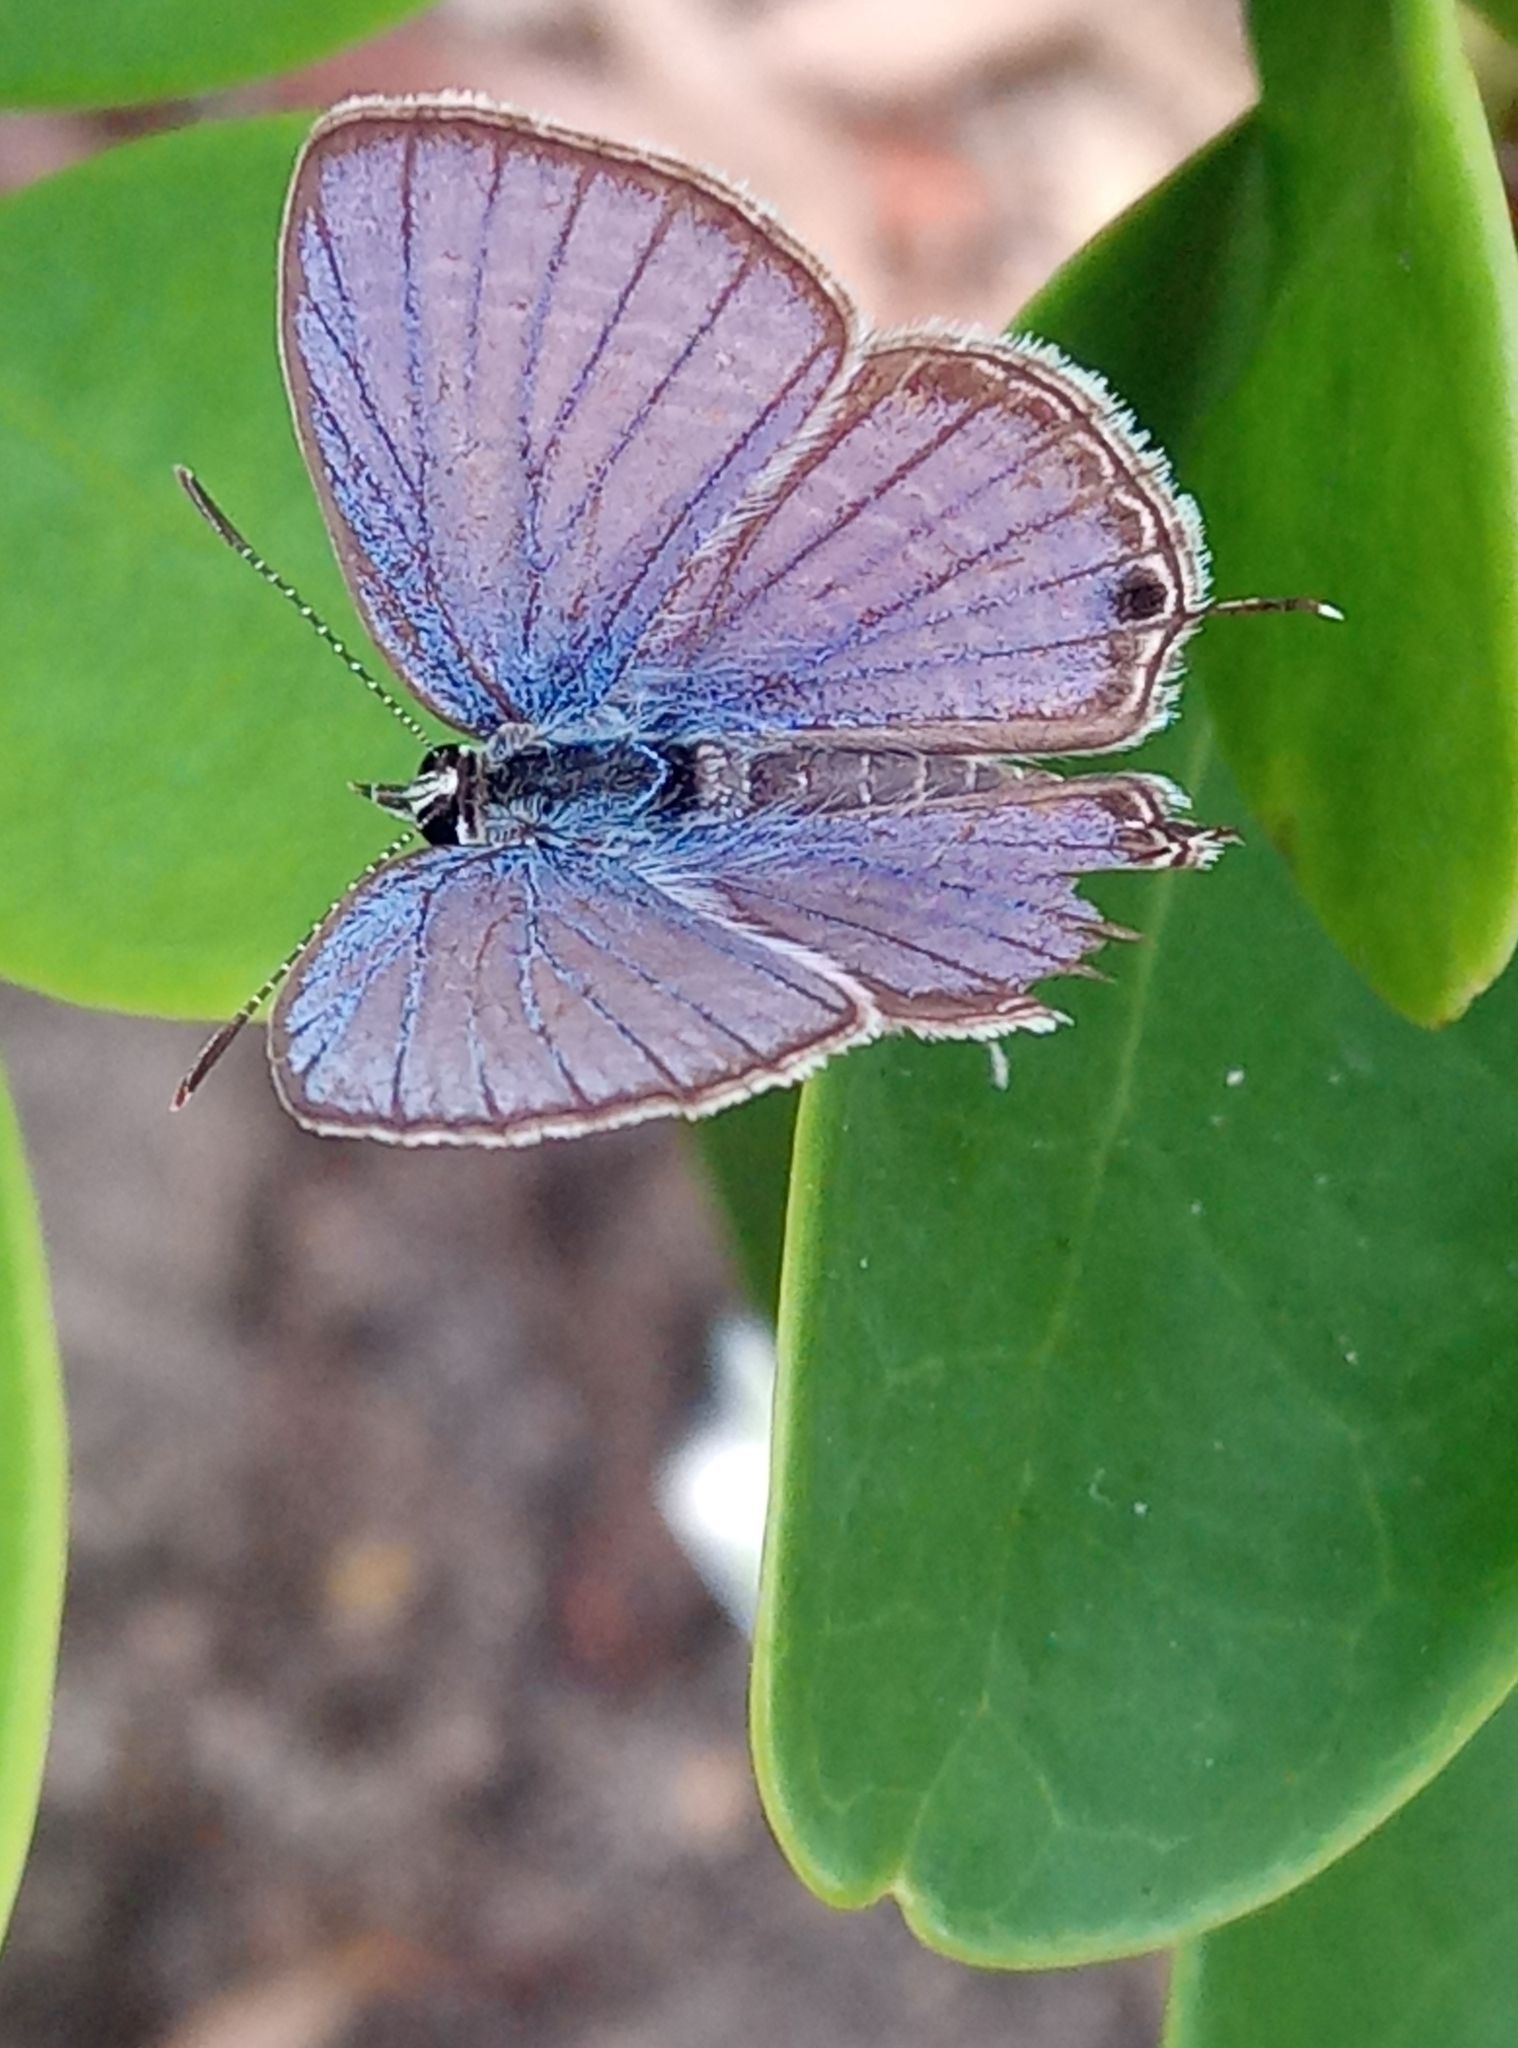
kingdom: Animalia
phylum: Arthropoda
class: Insecta
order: Lepidoptera
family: Lycaenidae
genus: Luthrodes
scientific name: Luthrodes pandava
